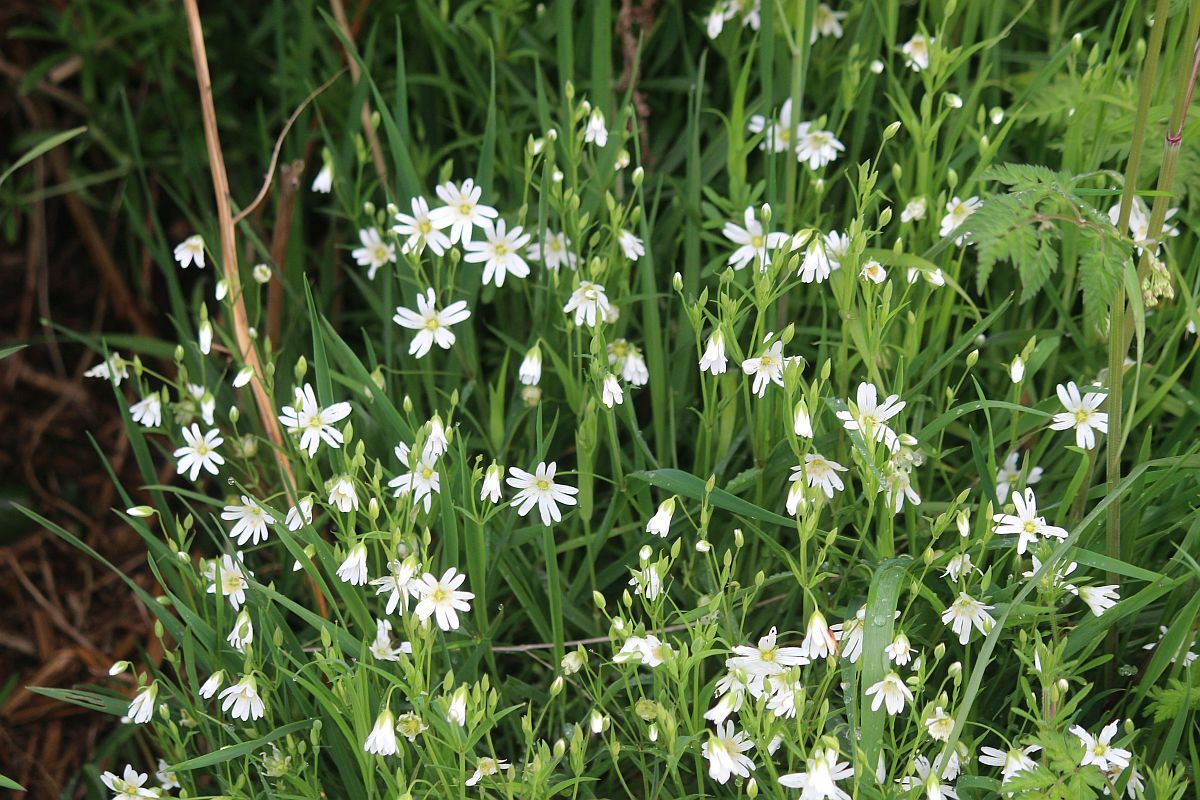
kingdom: Plantae
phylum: Tracheophyta
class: Magnoliopsida
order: Caryophyllales
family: Caryophyllaceae
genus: Rabelera
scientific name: Rabelera holostea
